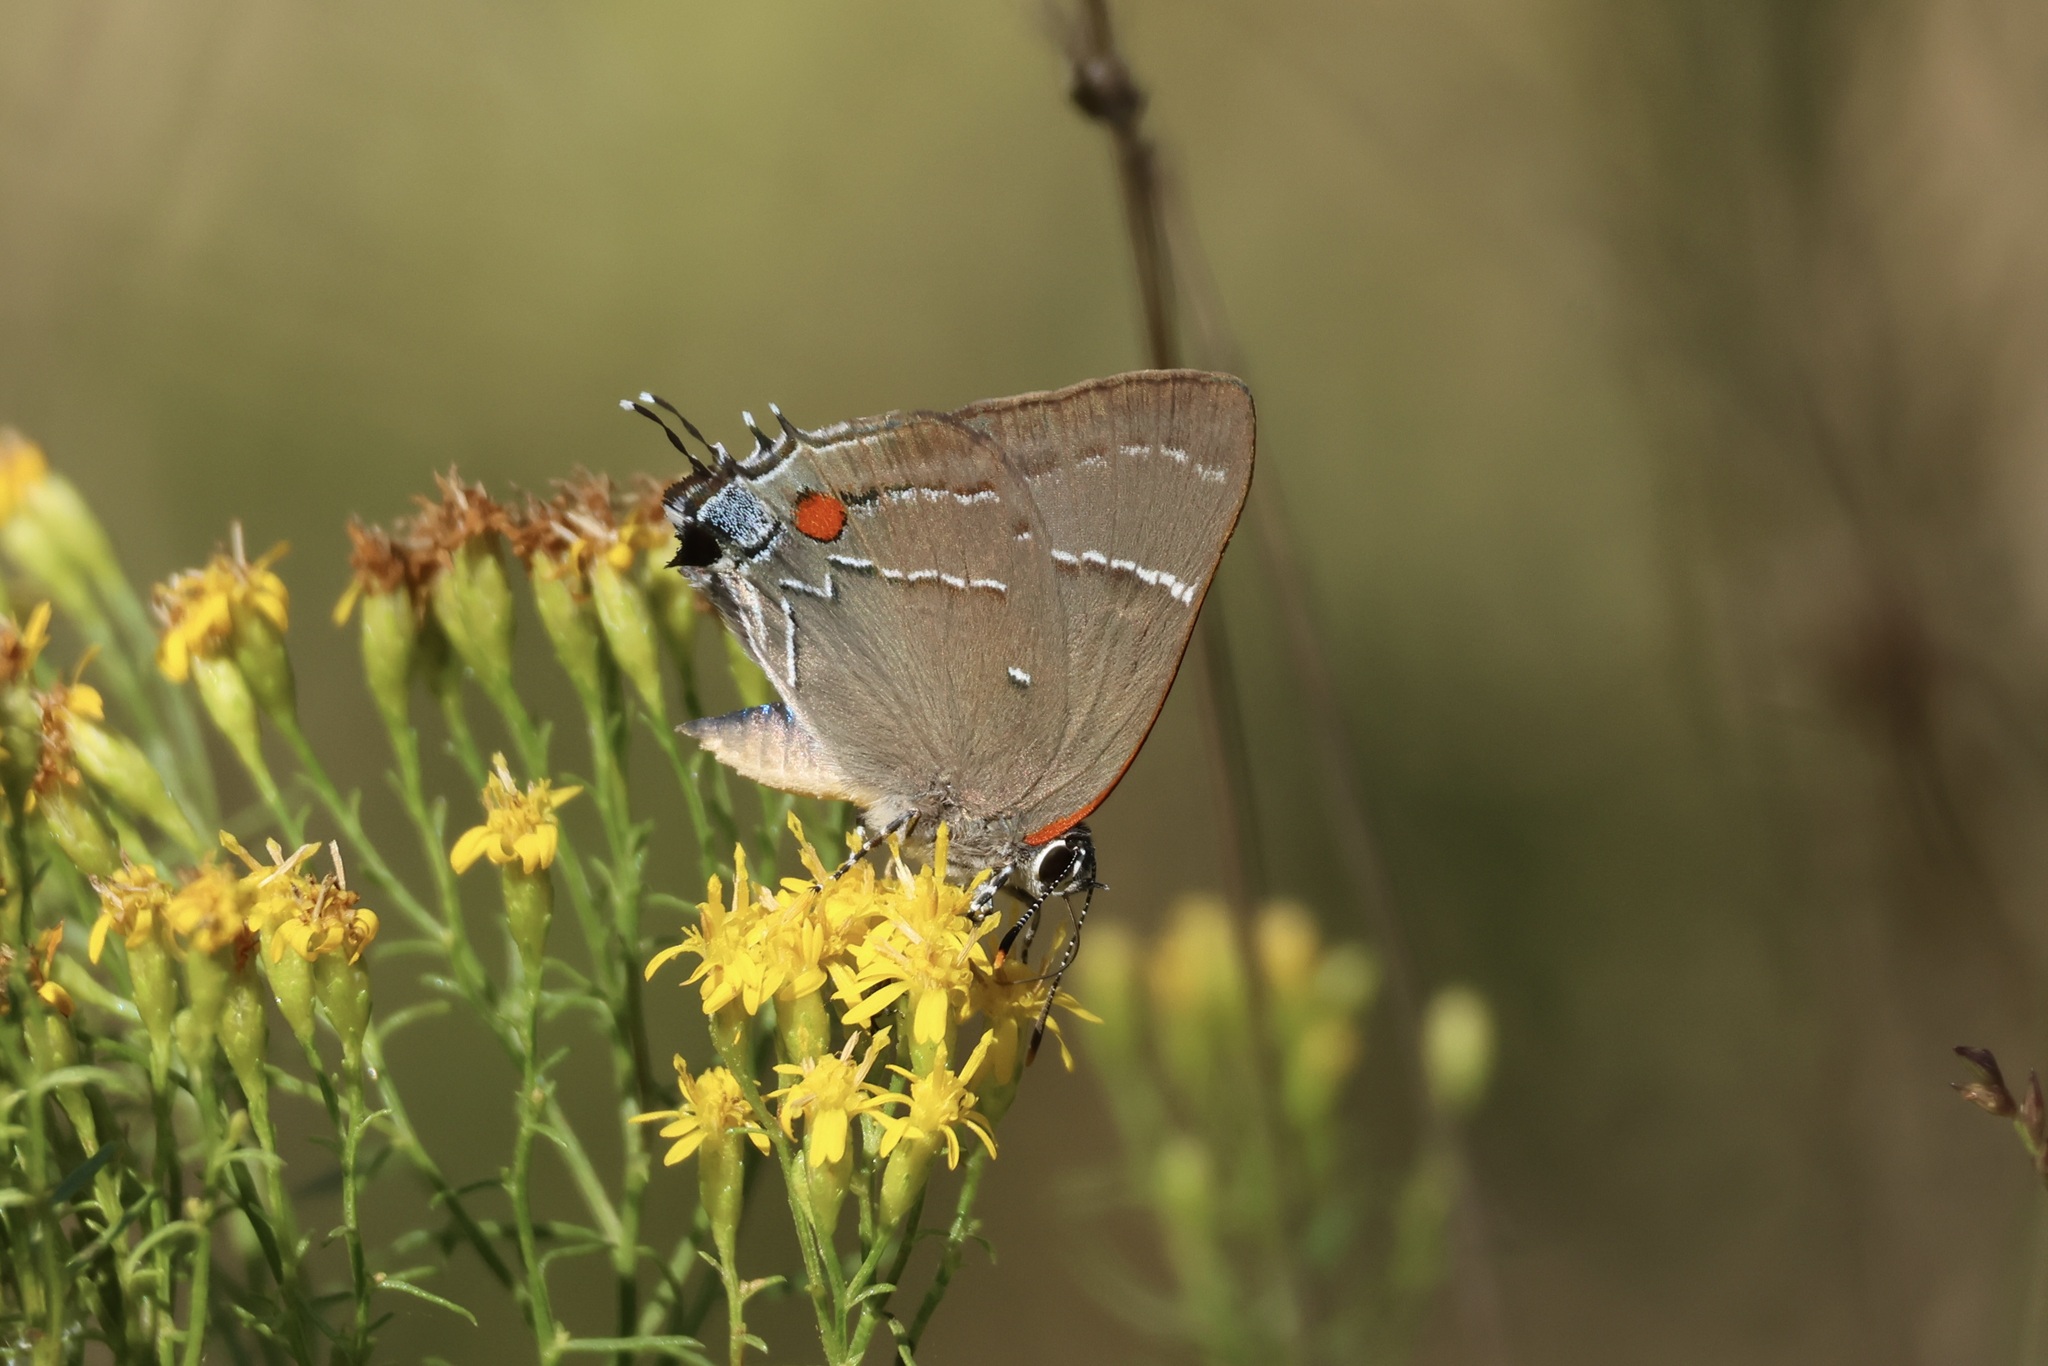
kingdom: Animalia
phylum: Arthropoda
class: Insecta
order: Lepidoptera
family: Lycaenidae
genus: Parrhasius
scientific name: Parrhasius m-album
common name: White m hairstreak
